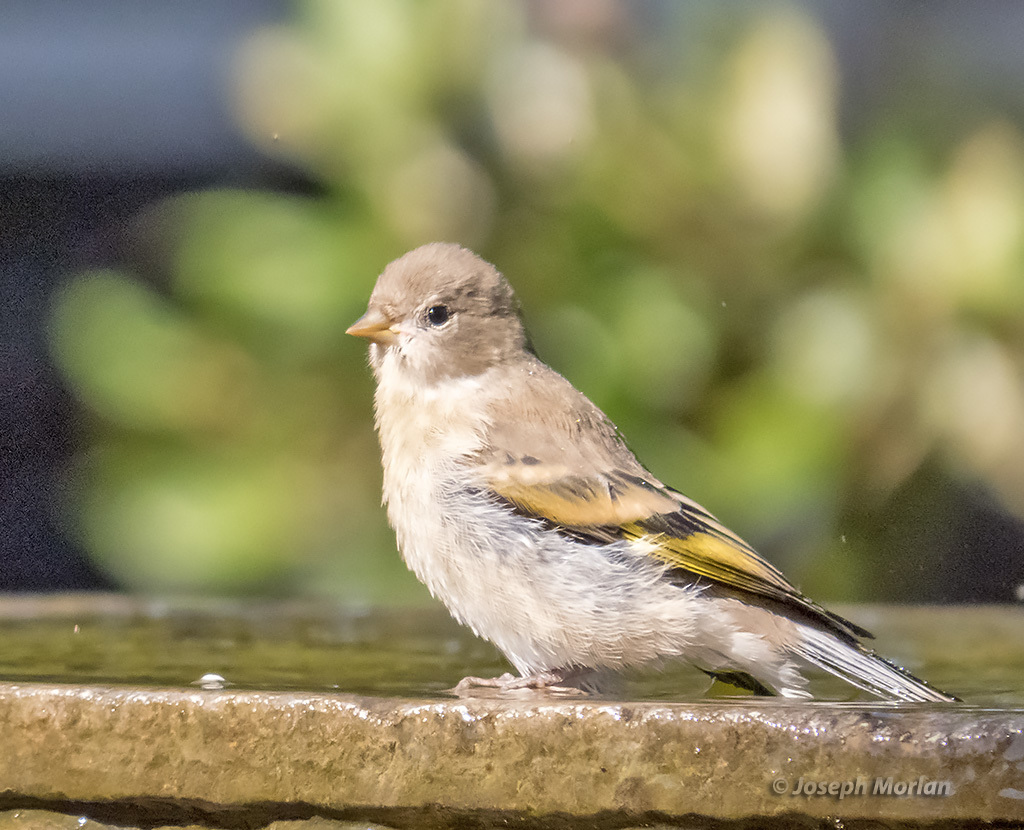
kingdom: Animalia
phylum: Chordata
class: Aves
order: Passeriformes
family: Fringillidae
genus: Spinus
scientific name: Spinus lawrencei
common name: Lawrence's goldfinch
